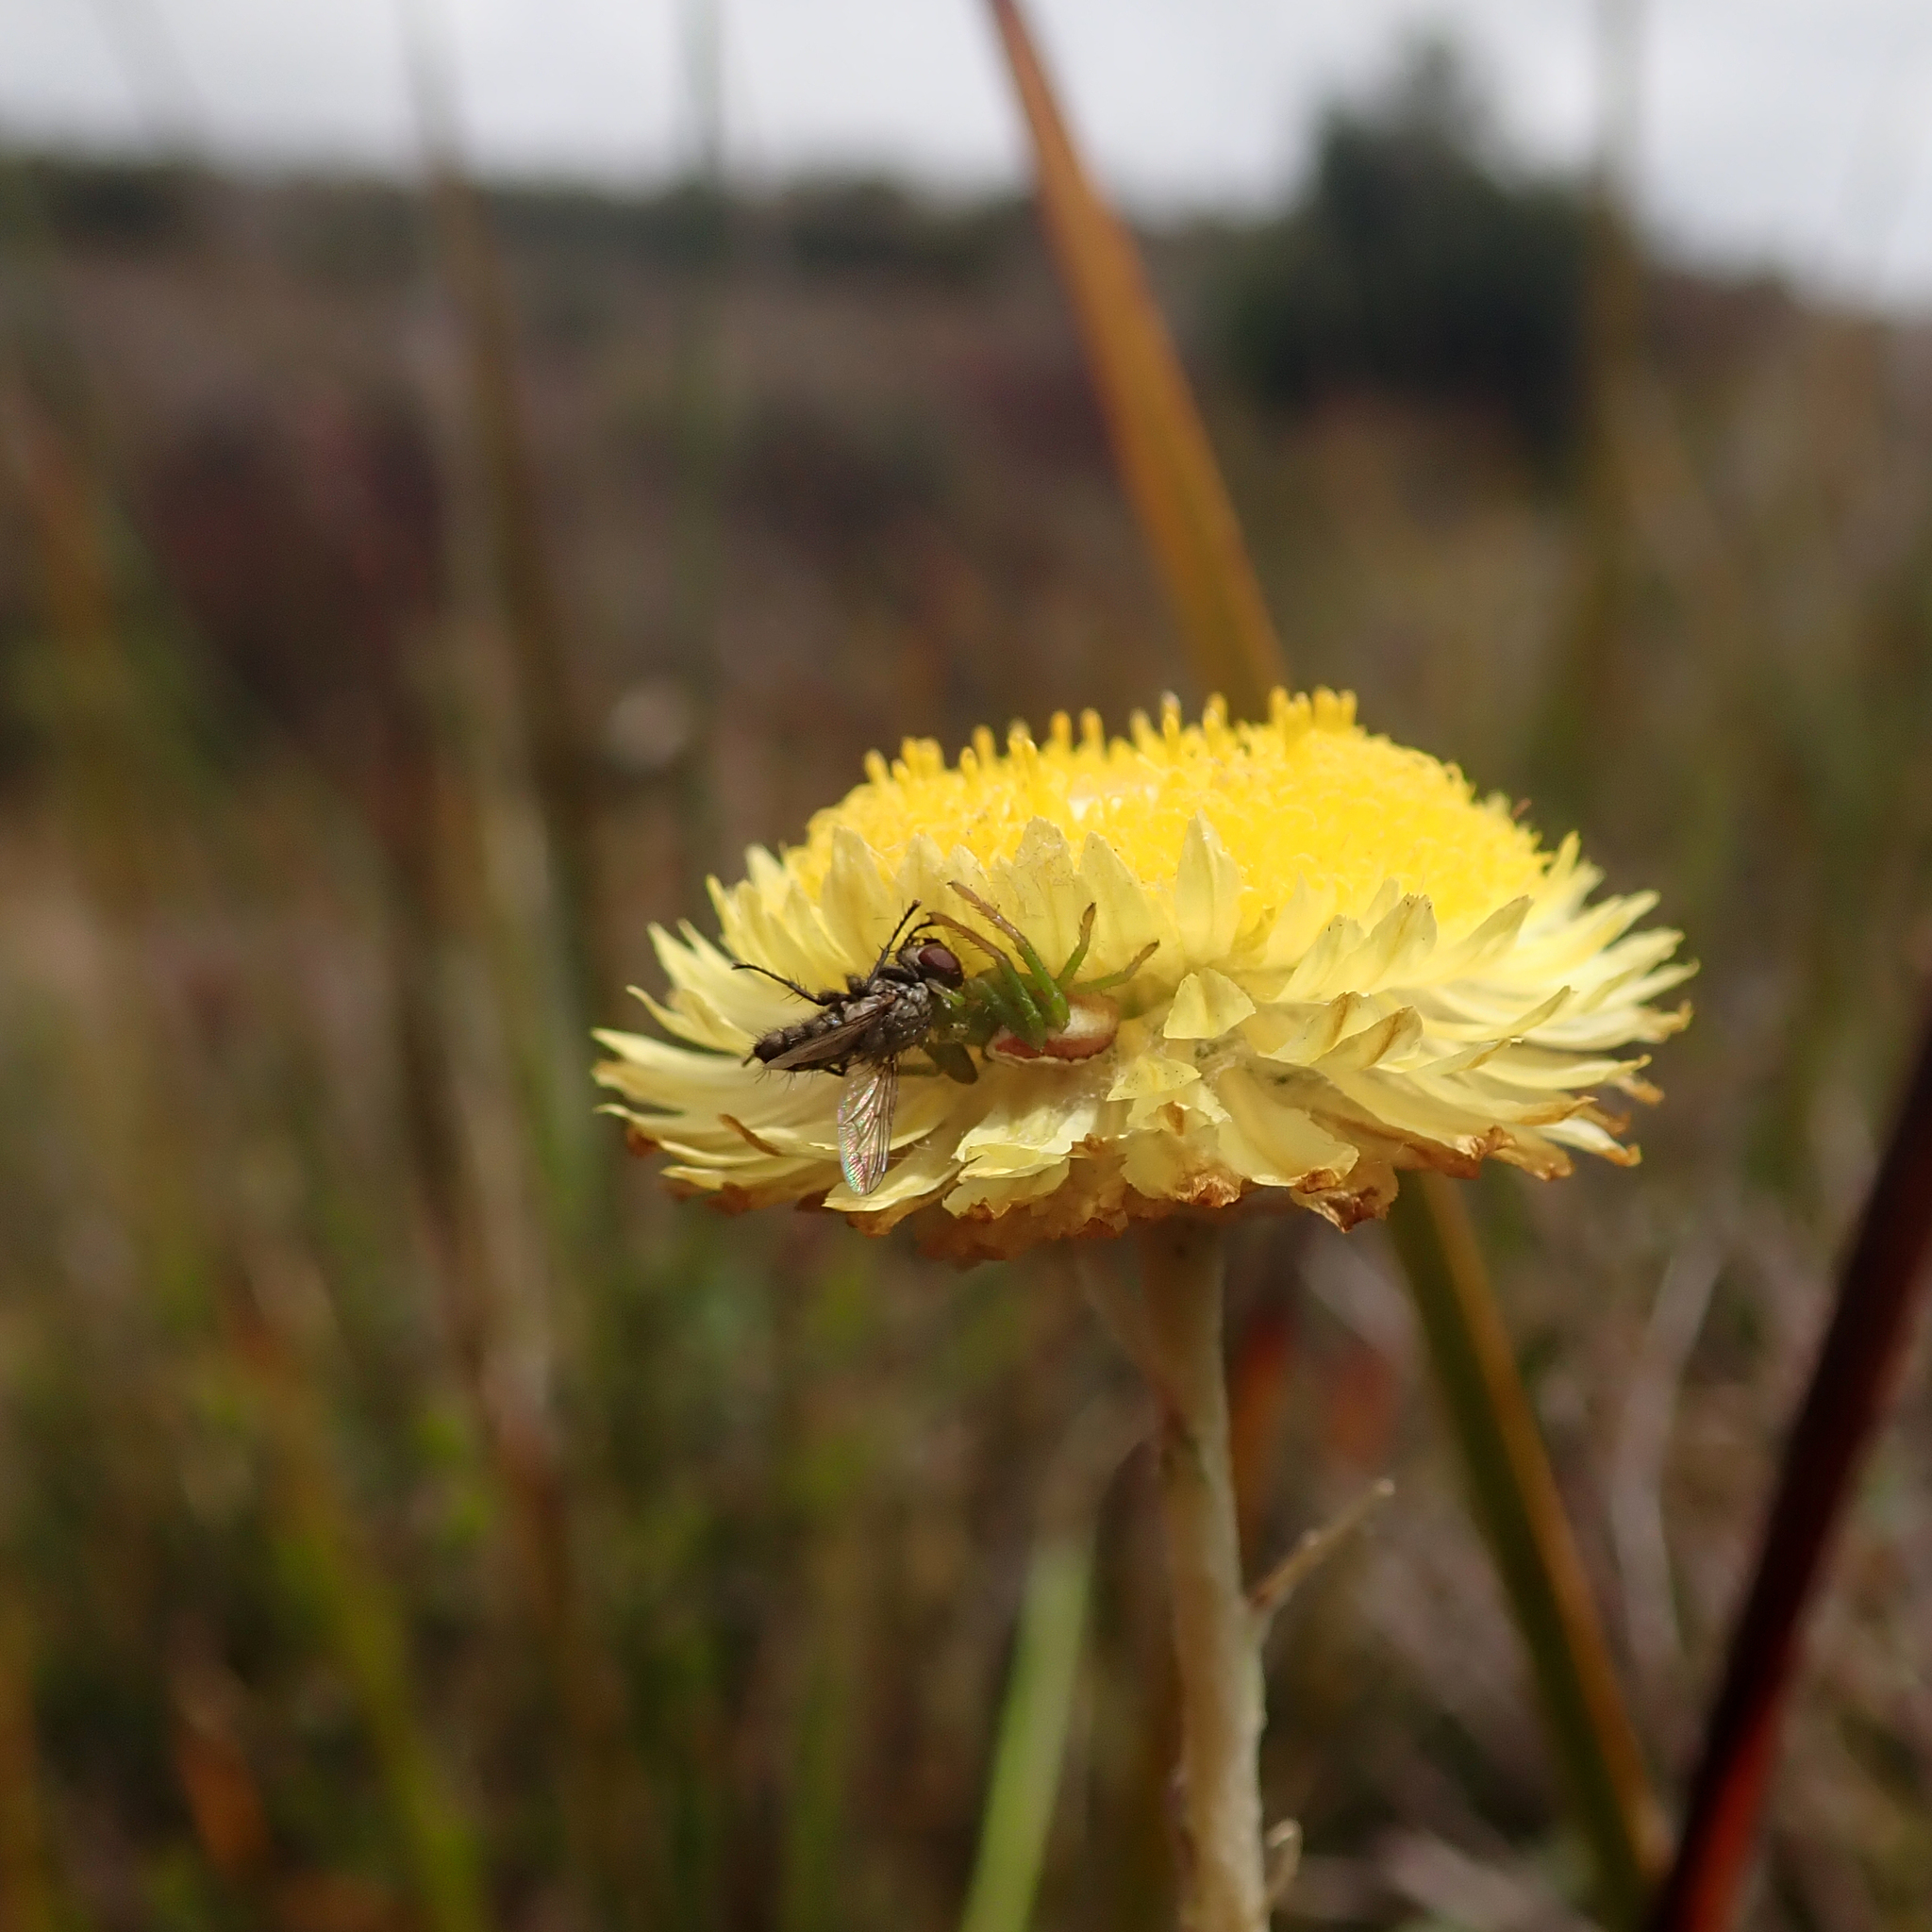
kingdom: Animalia
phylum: Arthropoda
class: Arachnida
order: Araneae
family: Thomisidae
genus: Australomisidia
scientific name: Australomisidia rosea
